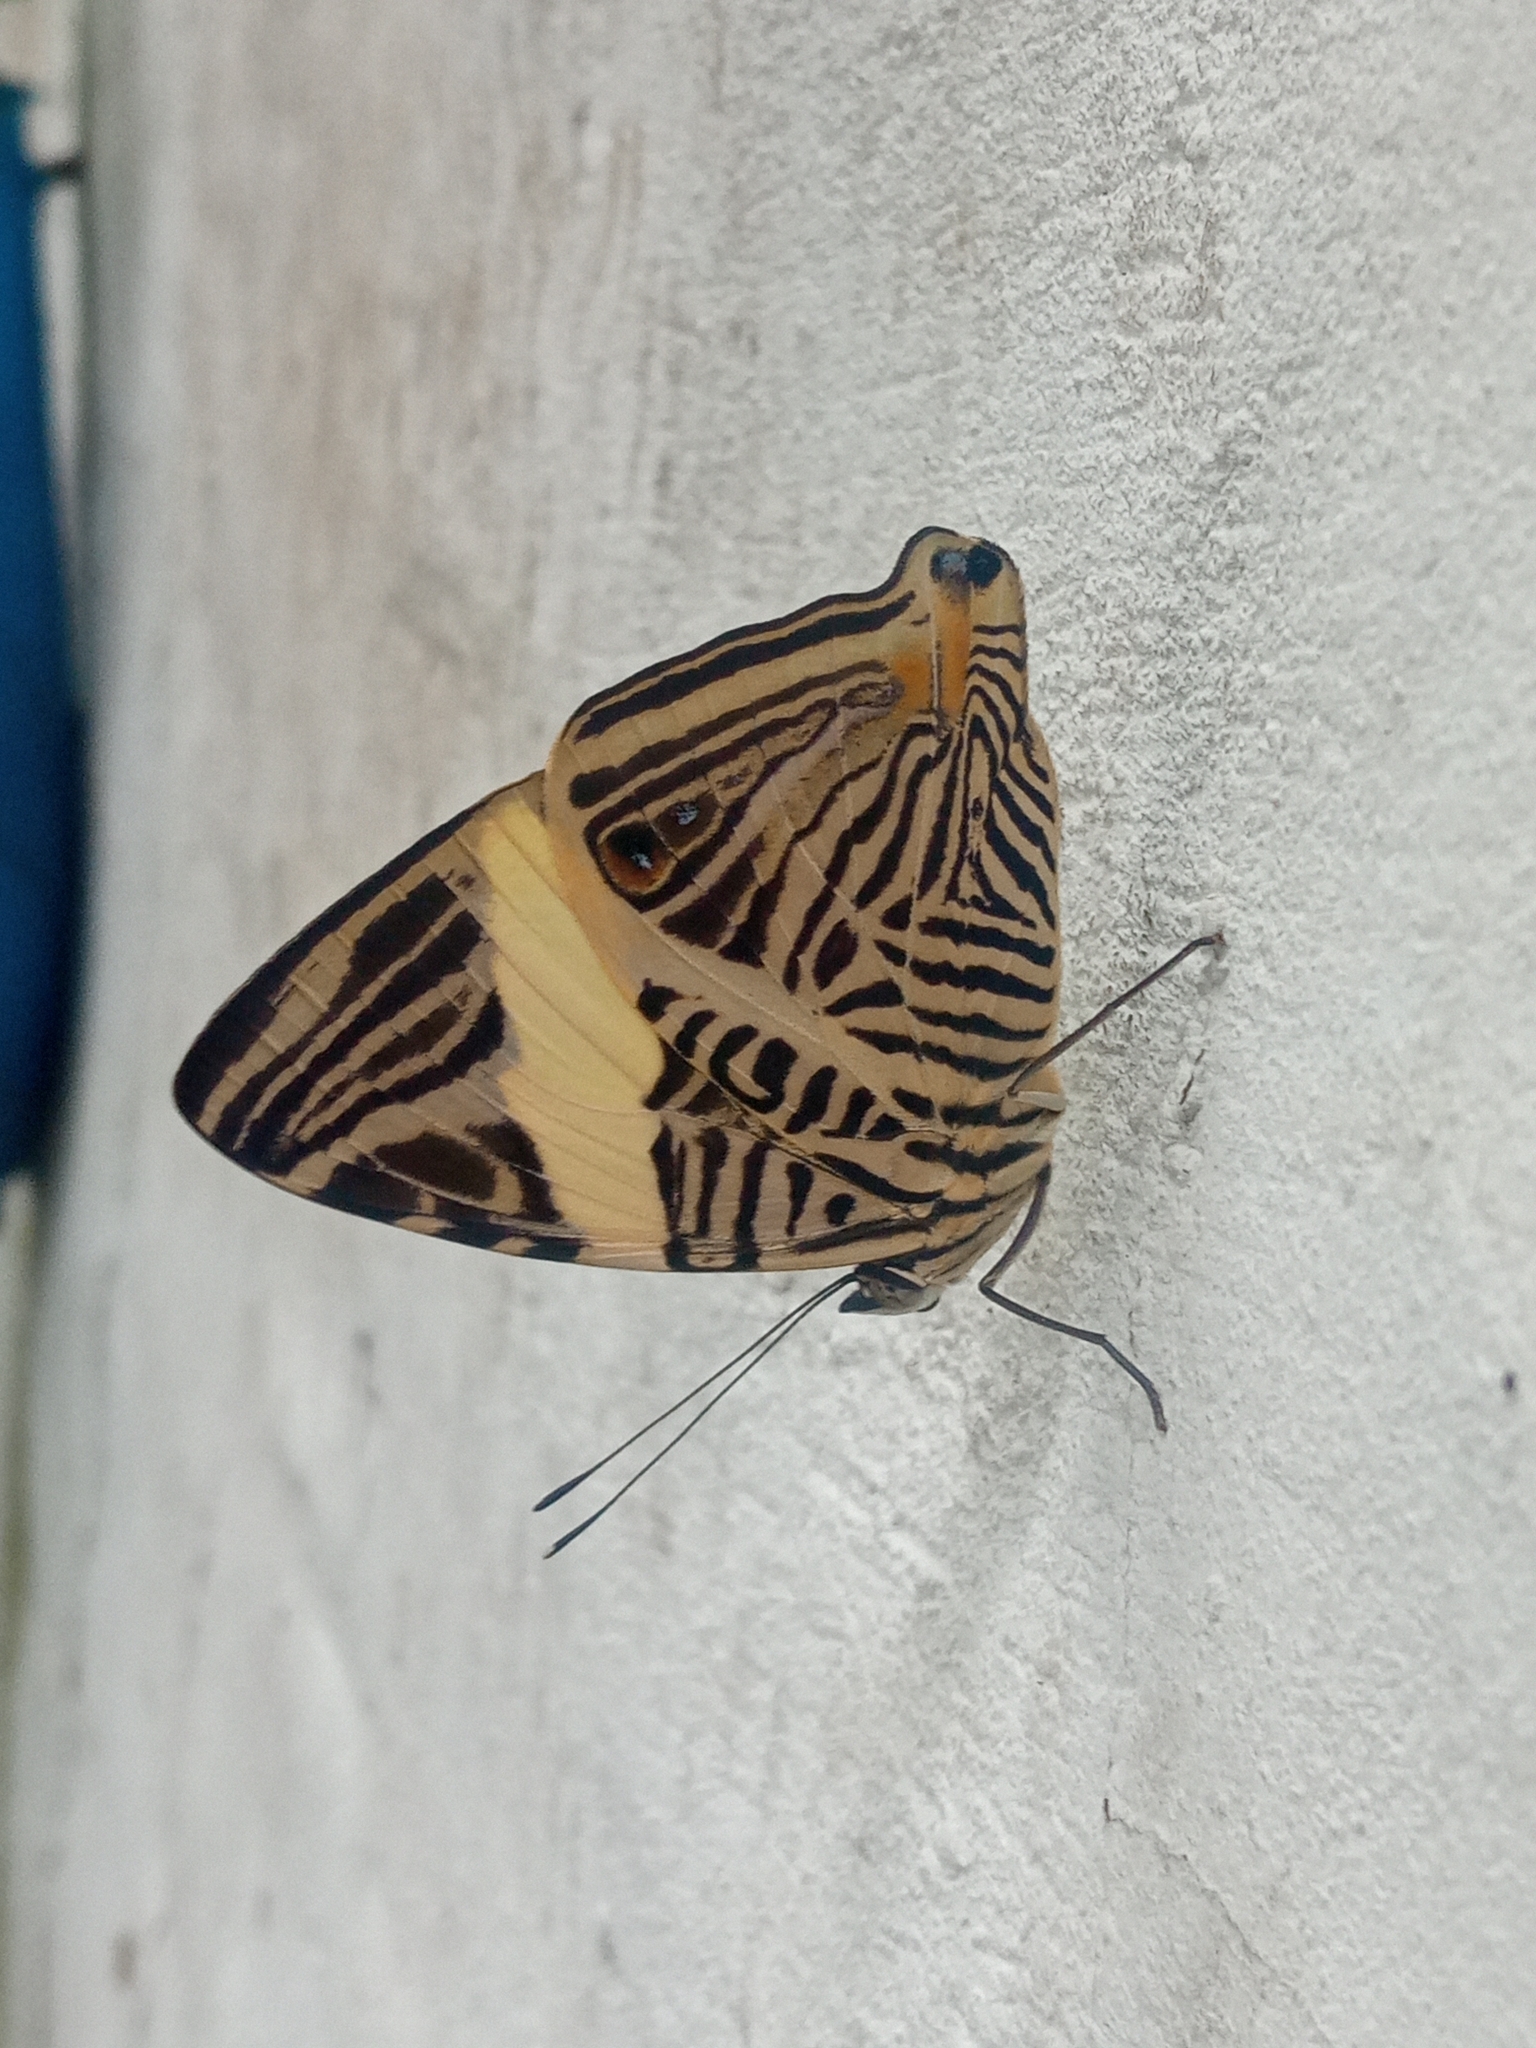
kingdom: Animalia
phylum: Arthropoda
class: Insecta
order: Lepidoptera
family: Nymphalidae
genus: Colobura
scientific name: Colobura dirce
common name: Dirce beauty
